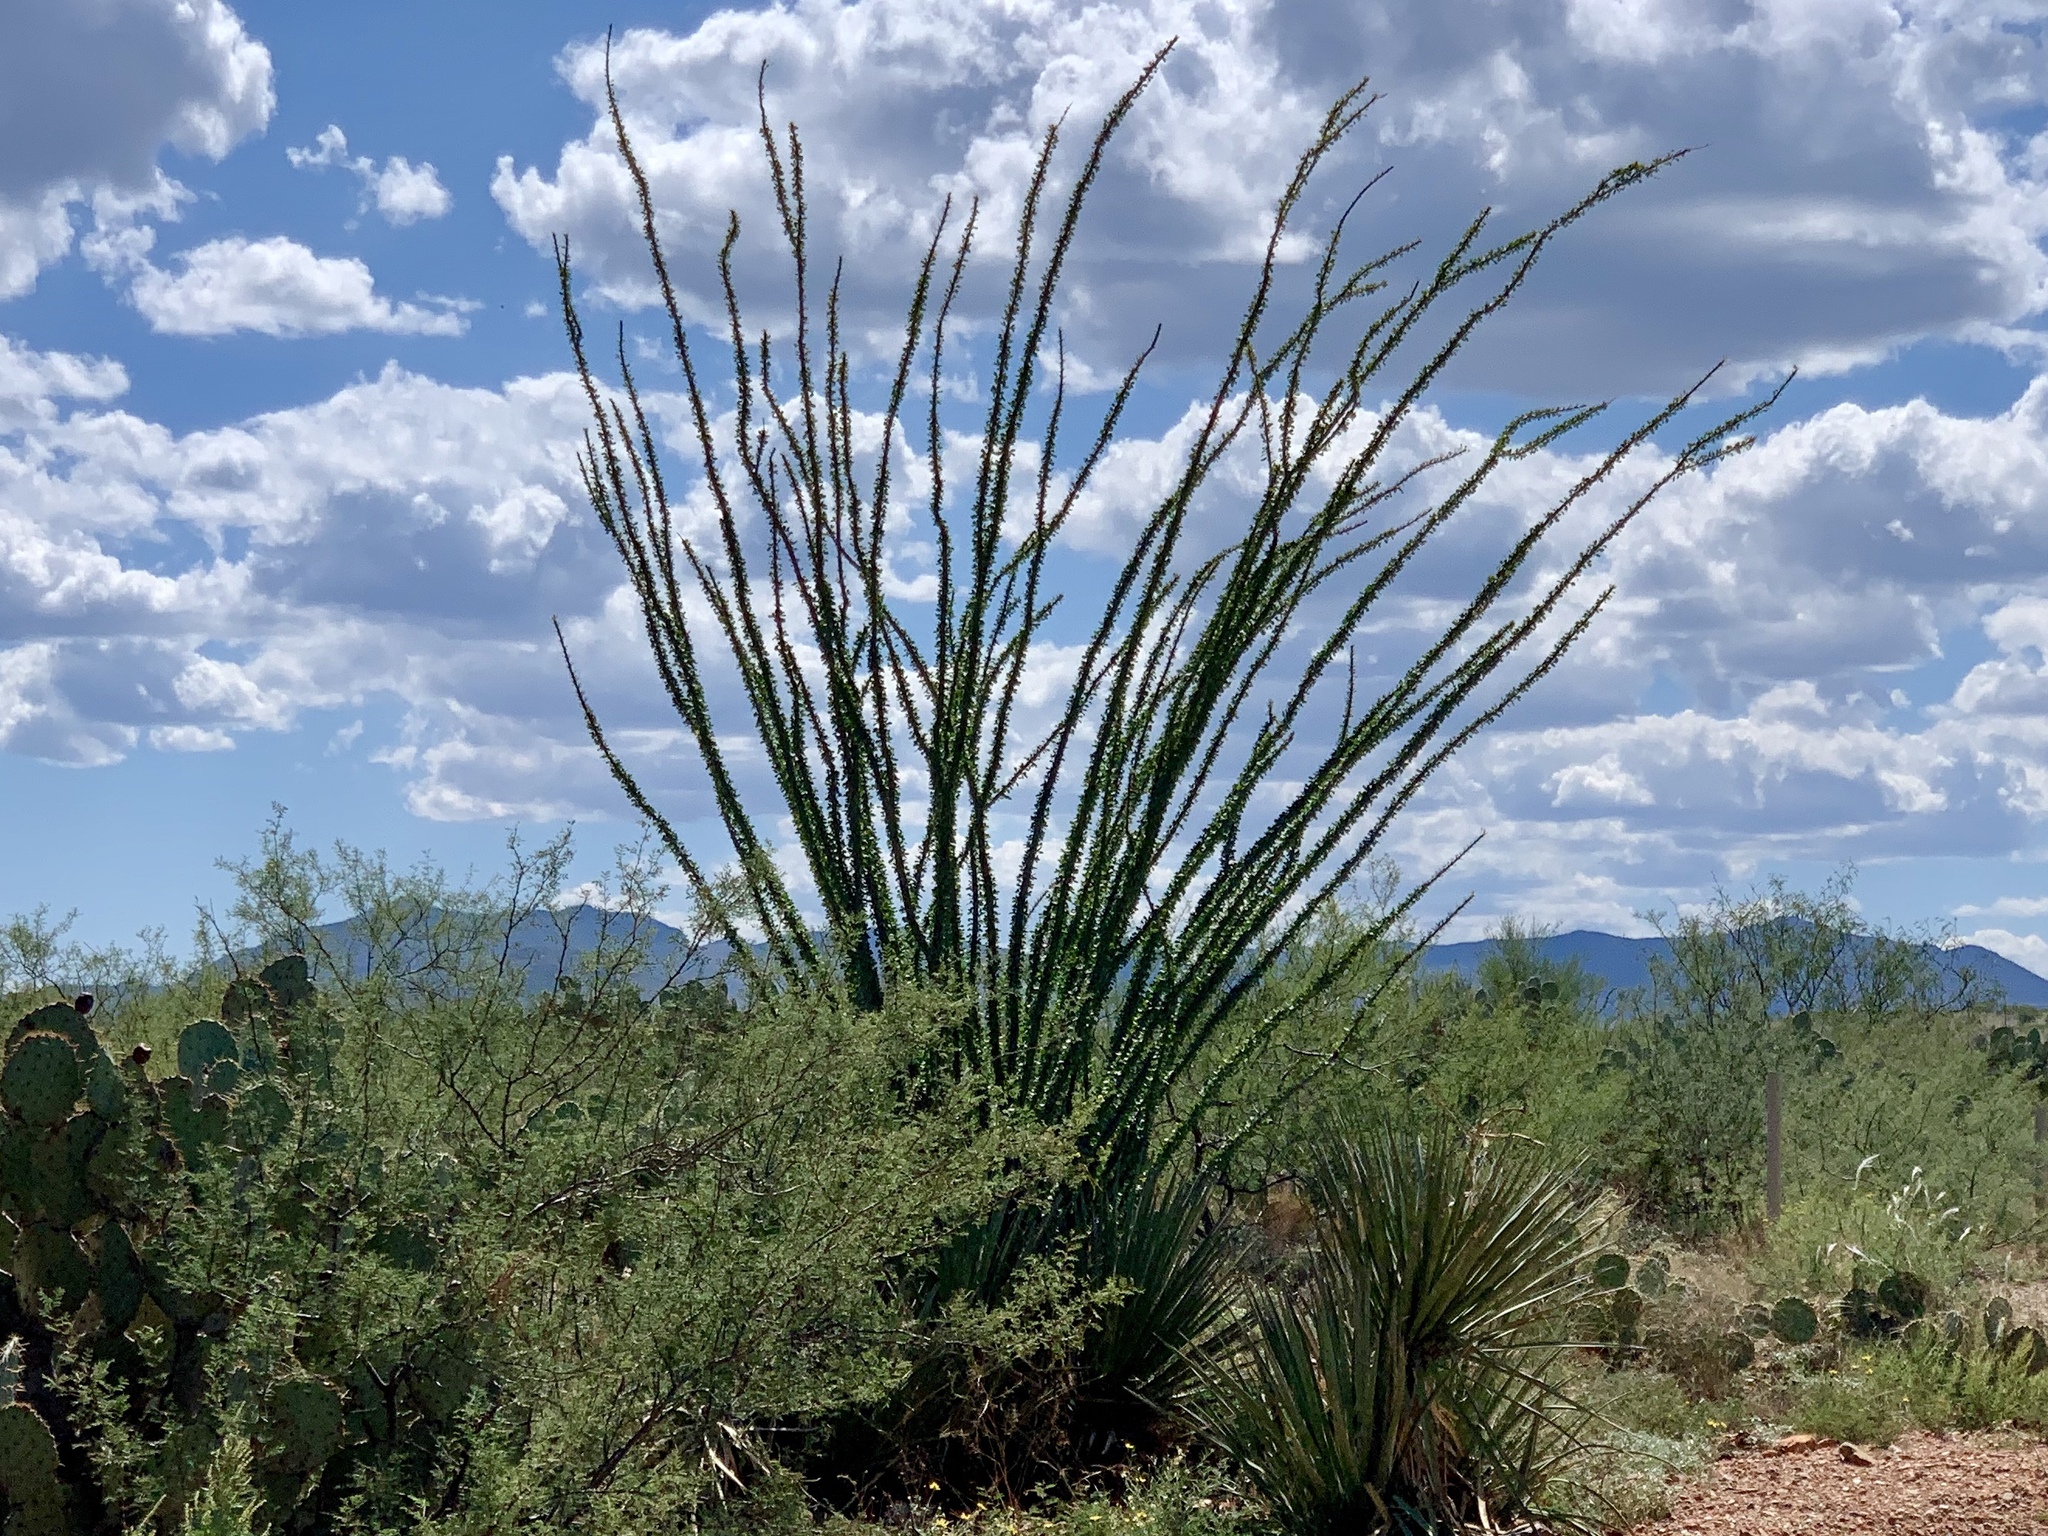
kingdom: Plantae
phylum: Tracheophyta
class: Magnoliopsida
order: Ericales
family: Fouquieriaceae
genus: Fouquieria
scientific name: Fouquieria splendens
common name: Vine-cactus
